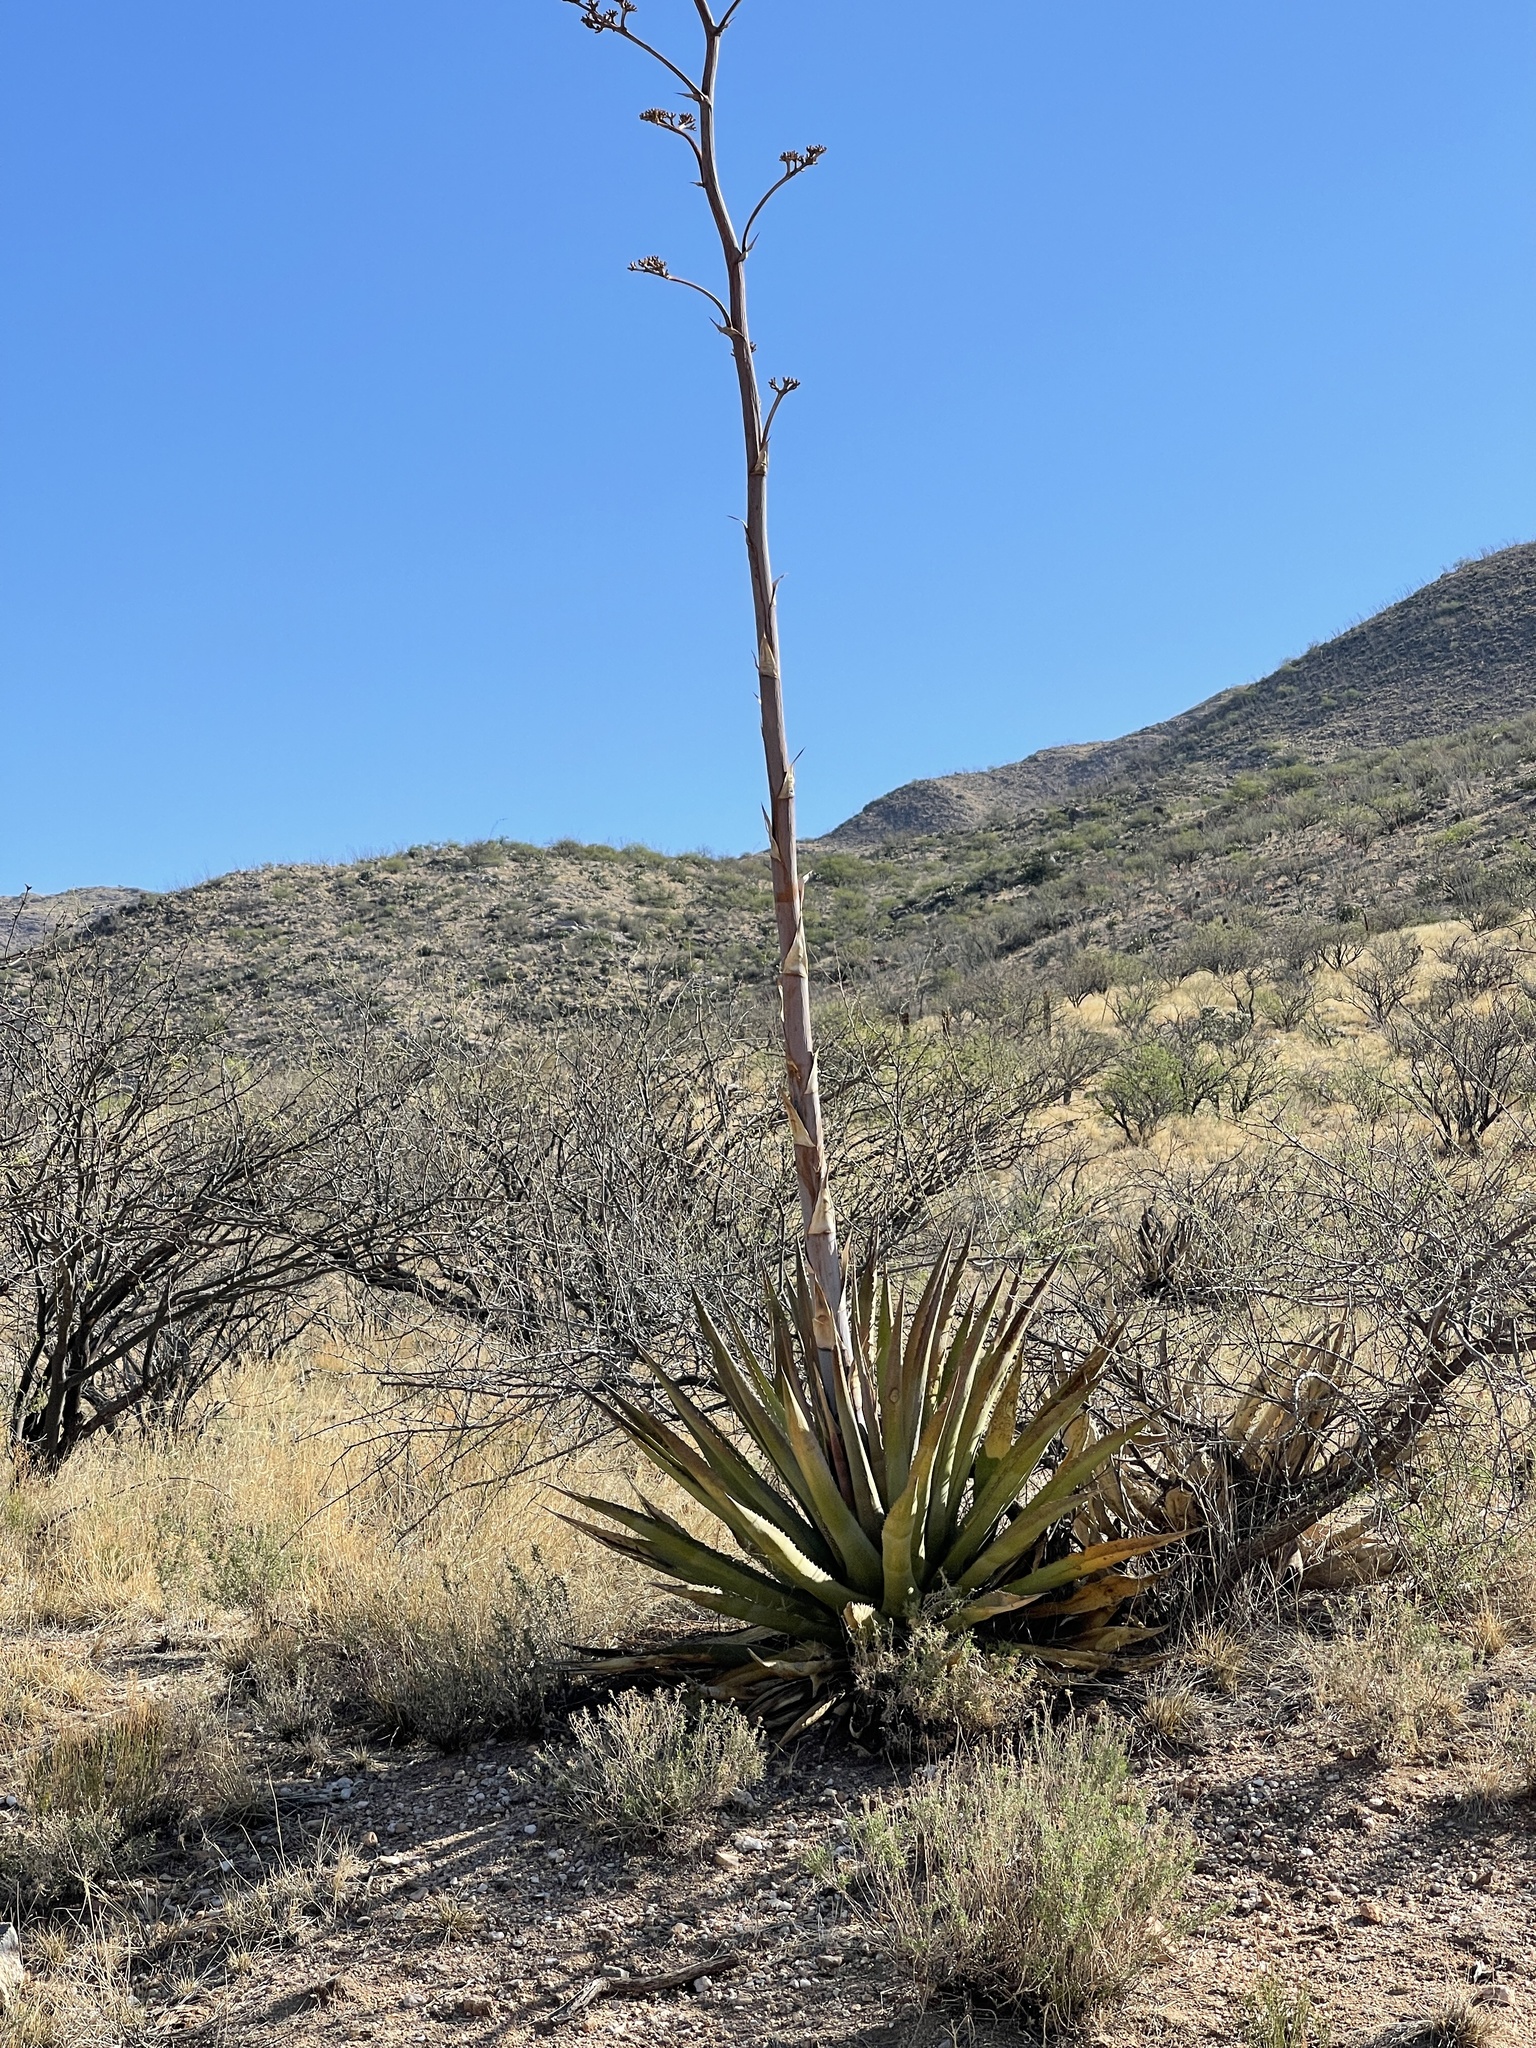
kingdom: Plantae
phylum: Tracheophyta
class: Liliopsida
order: Asparagales
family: Asparagaceae
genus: Agave
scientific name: Agave palmeri
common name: Palmer agave
